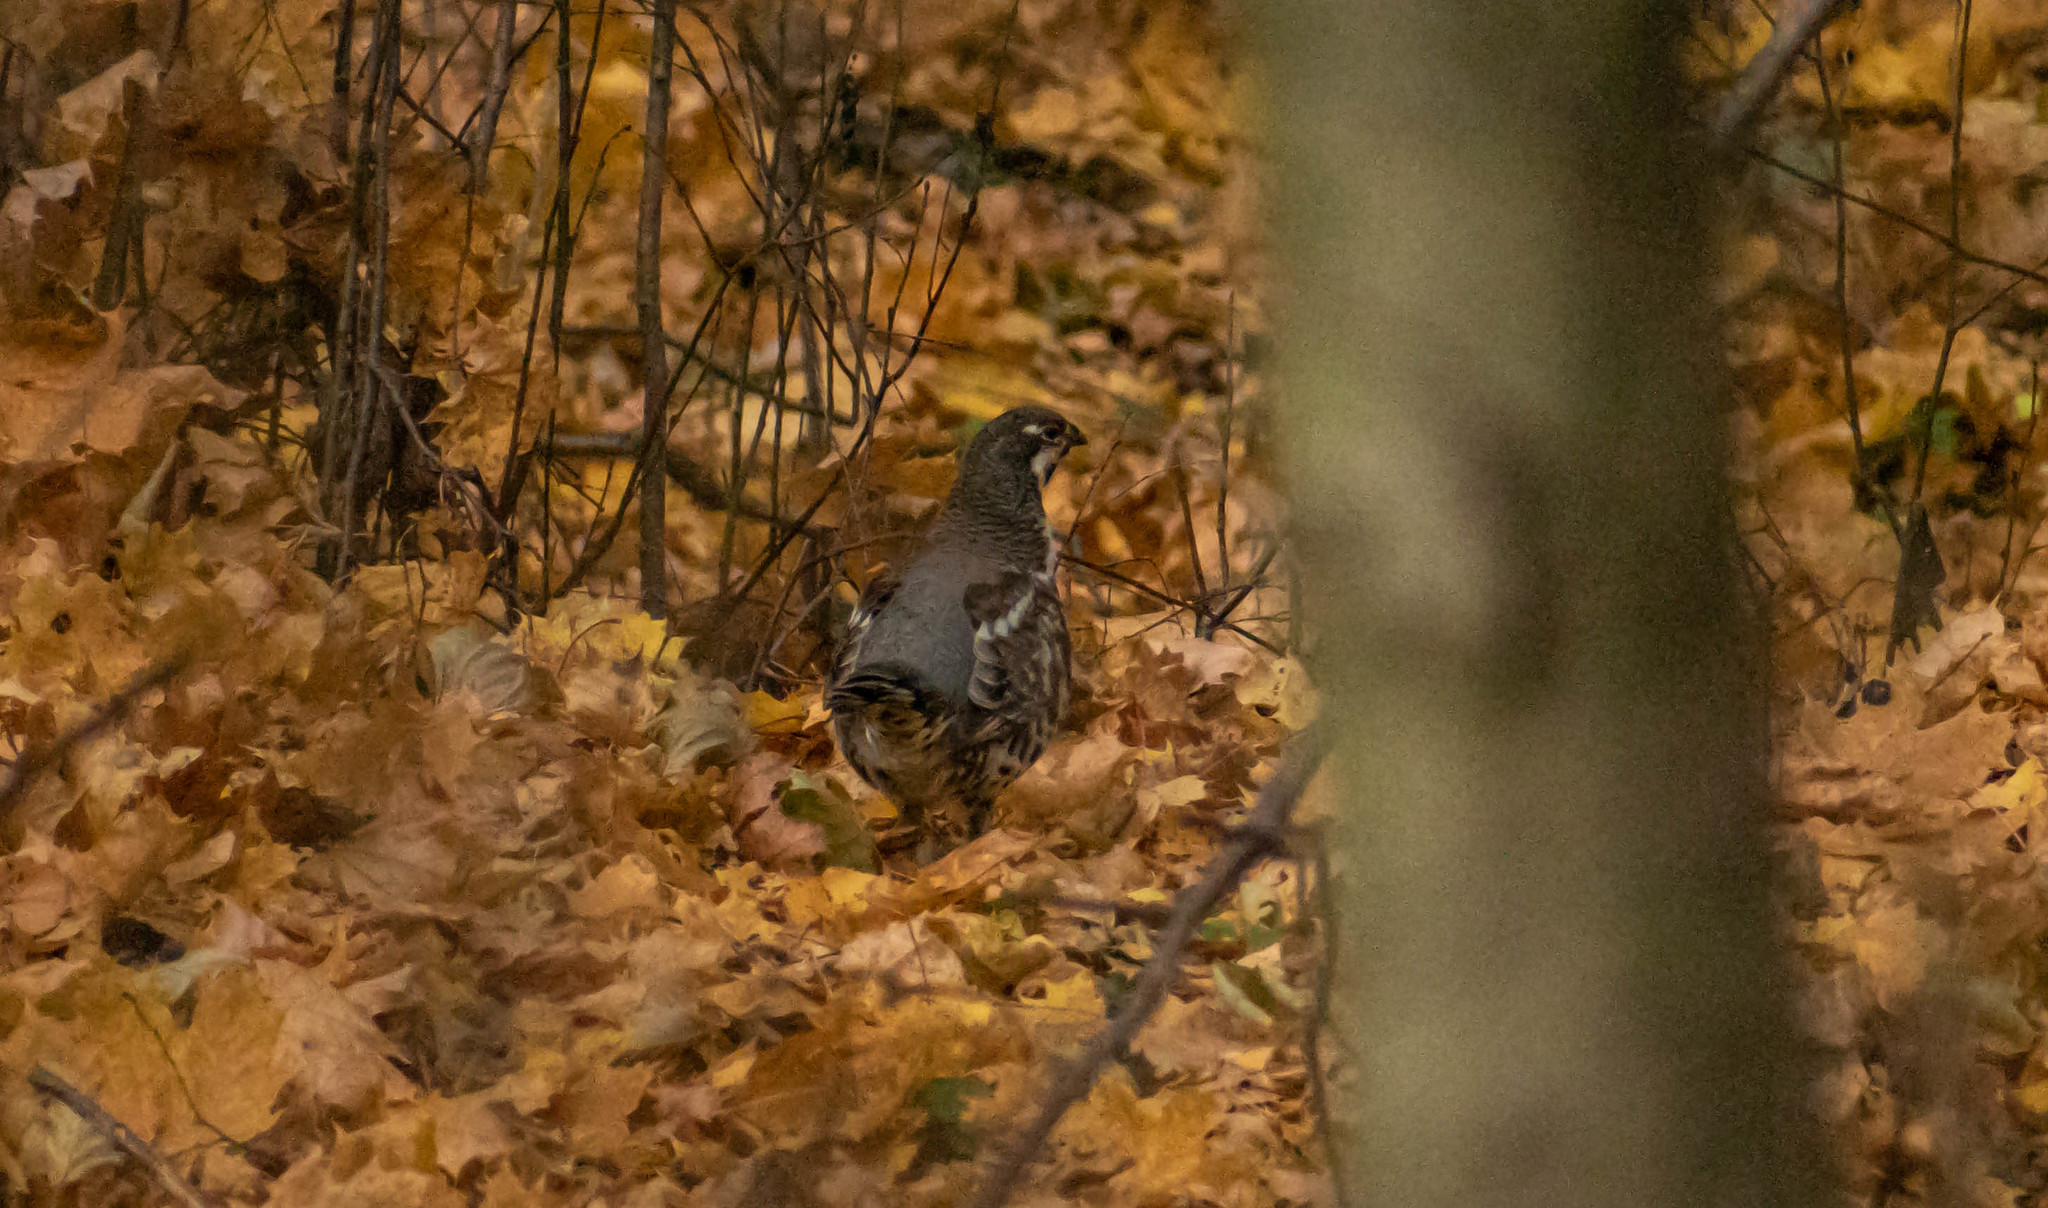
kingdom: Animalia
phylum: Chordata
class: Aves
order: Galliformes
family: Phasianidae
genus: Tetrastes
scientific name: Tetrastes bonasia
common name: Hazel grouse
